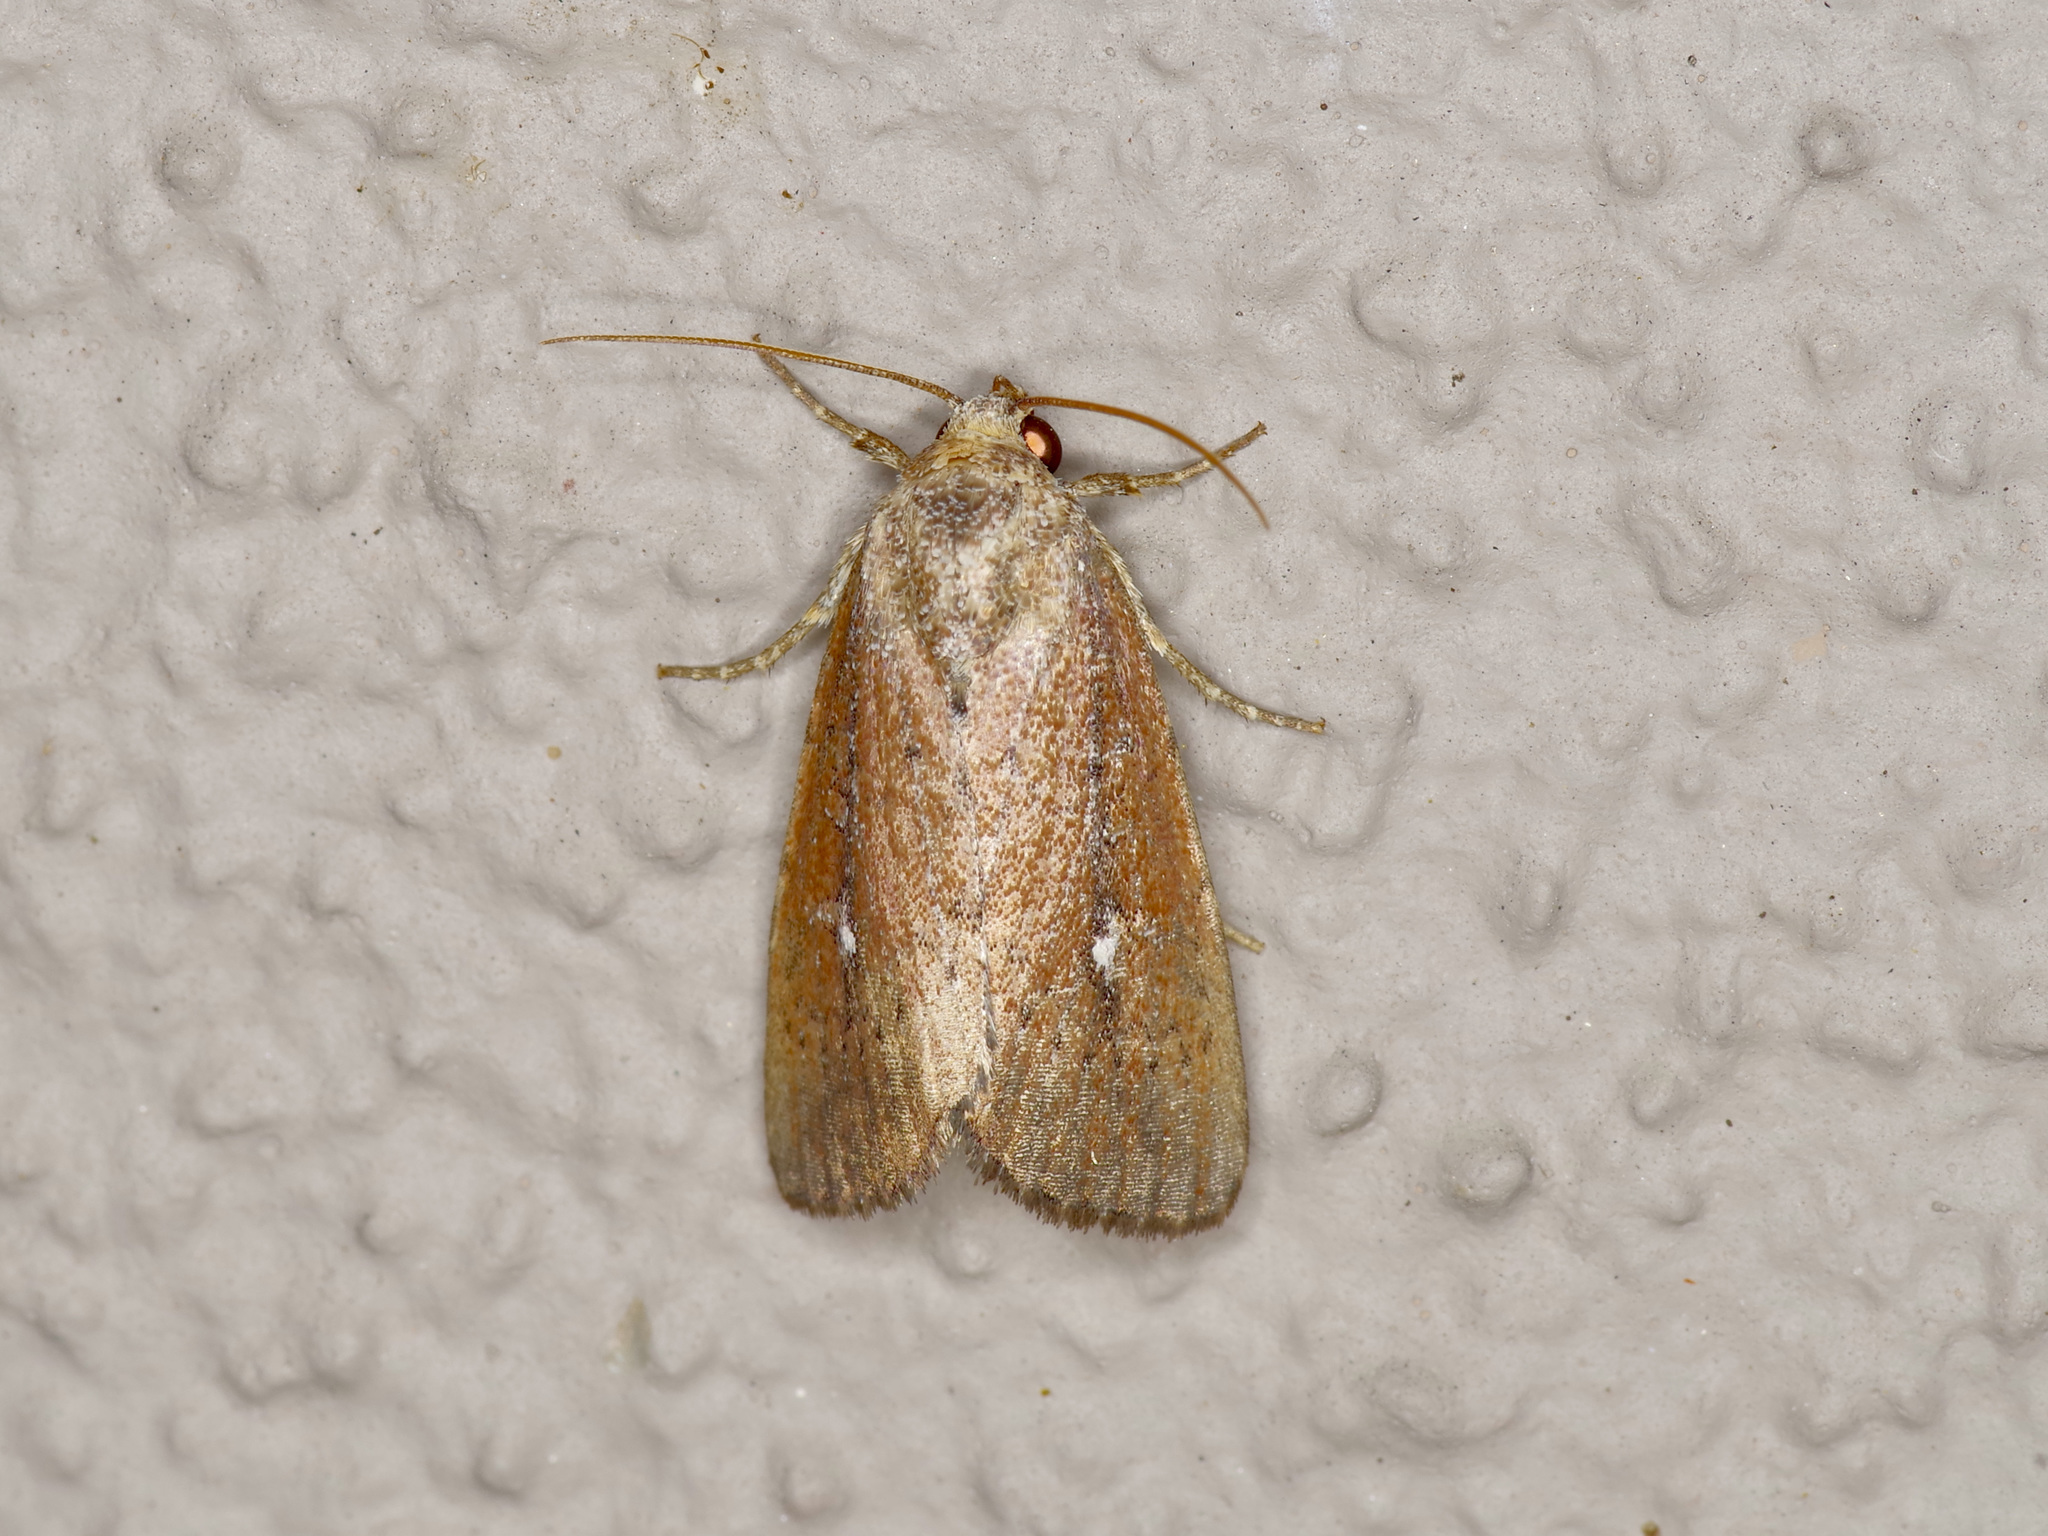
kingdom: Animalia
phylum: Arthropoda
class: Insecta
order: Lepidoptera
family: Noctuidae
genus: Condica
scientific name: Condica videns
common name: White-dotted groundling
